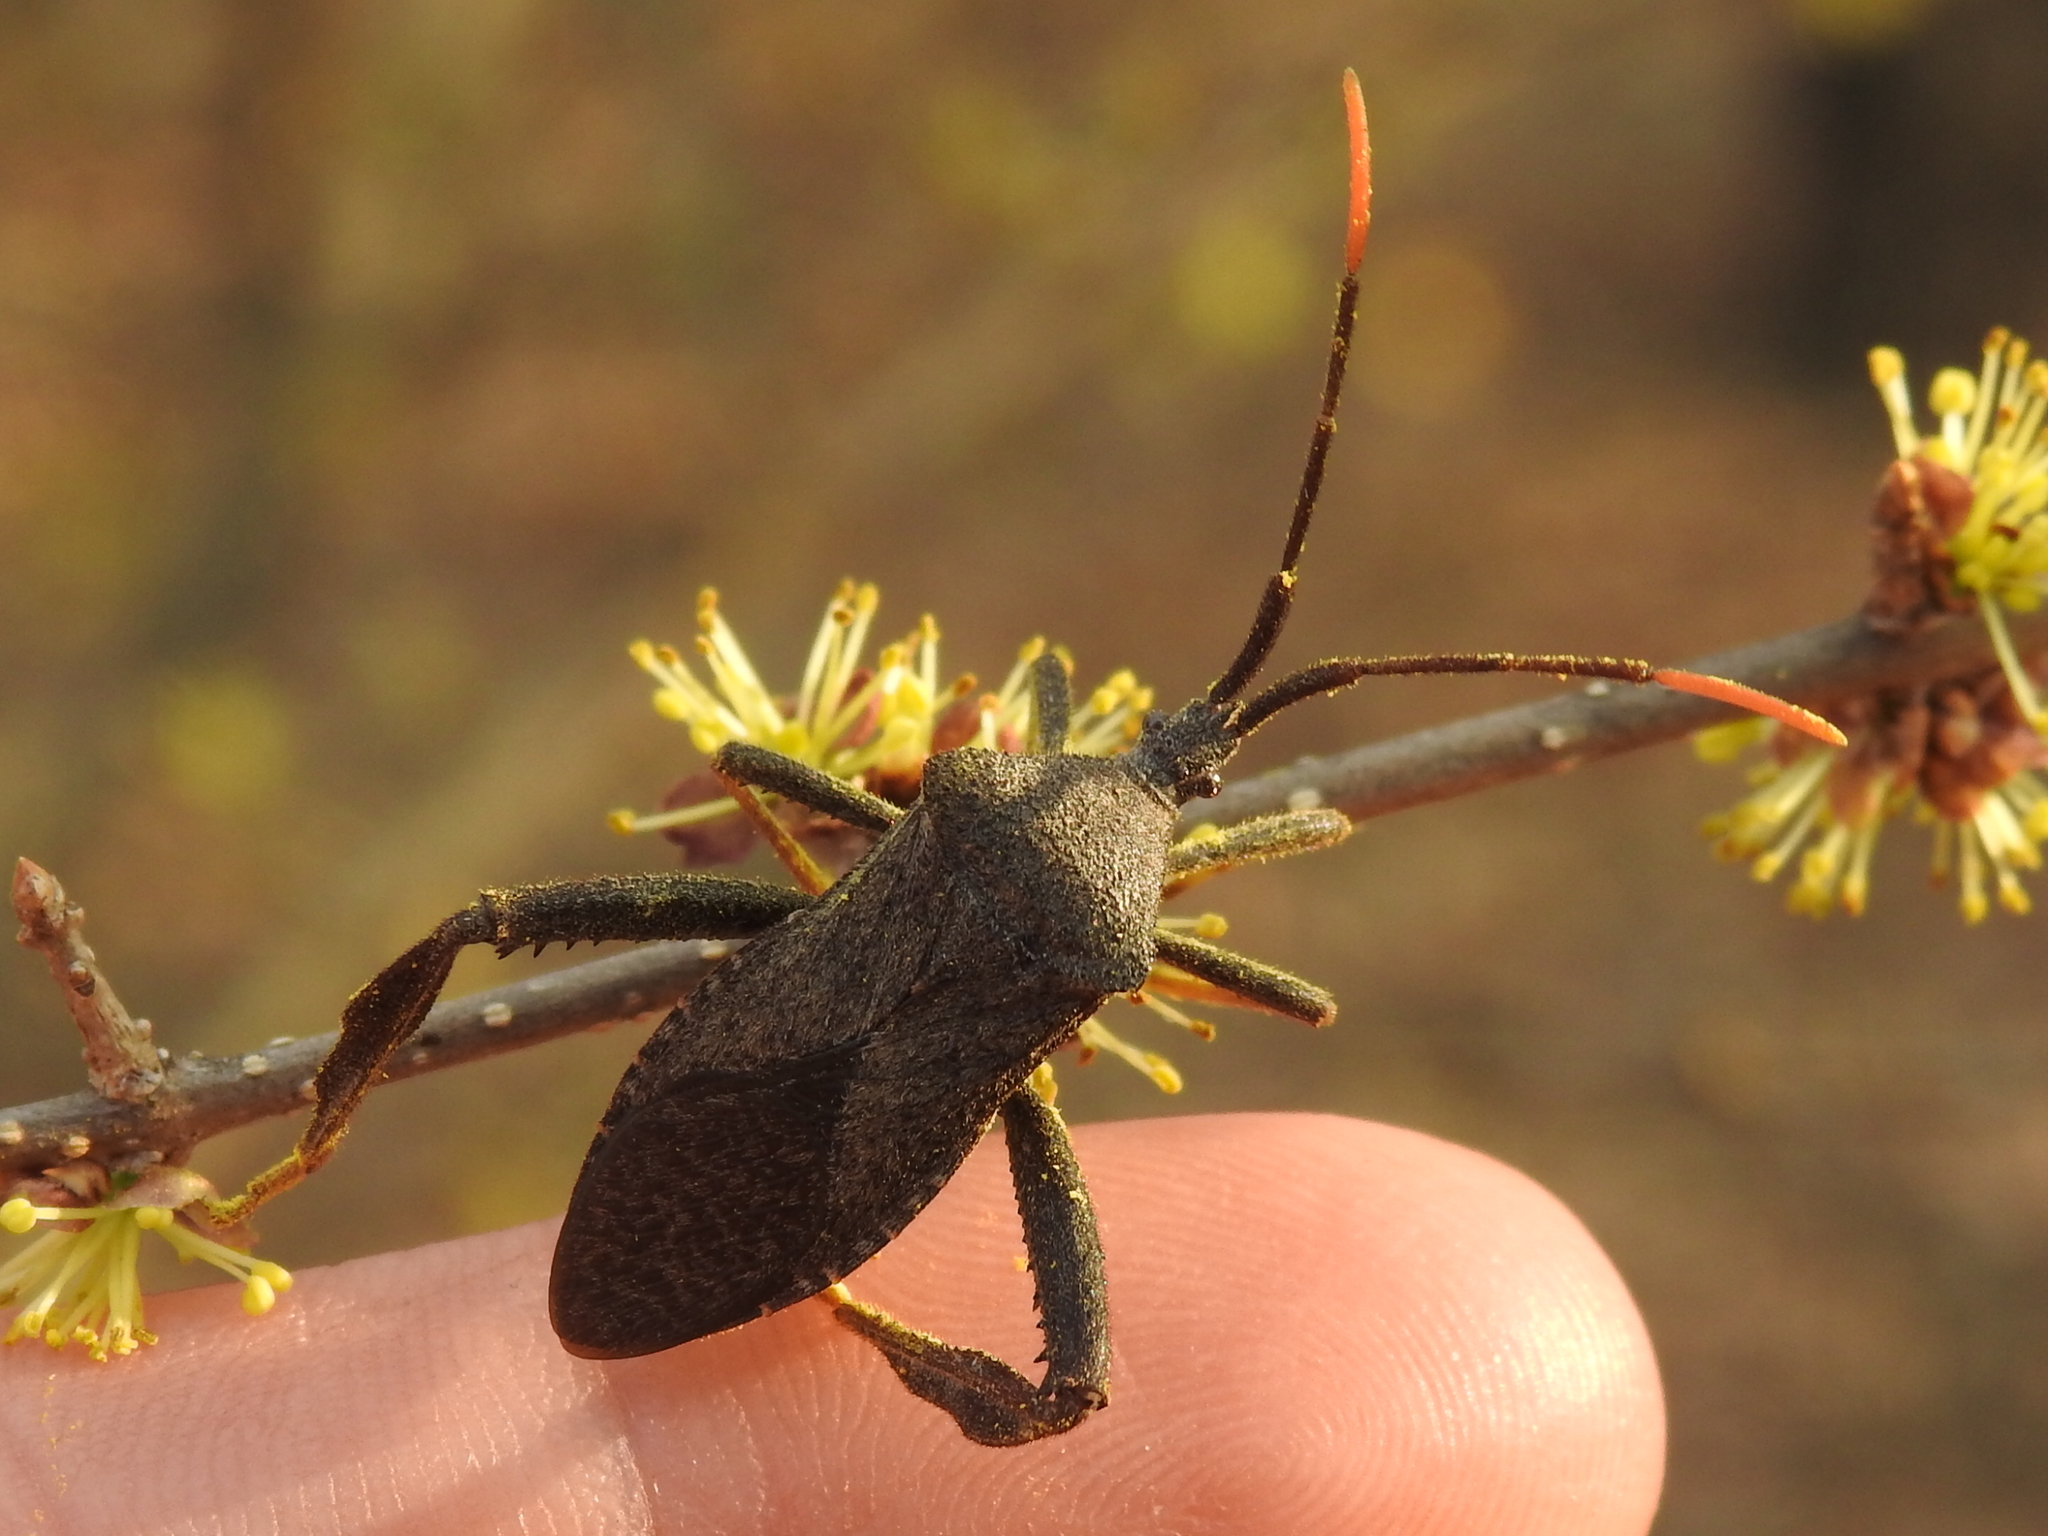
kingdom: Animalia
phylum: Arthropoda
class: Insecta
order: Hemiptera
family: Coreidae
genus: Acanthocephala
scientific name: Acanthocephala terminalis
